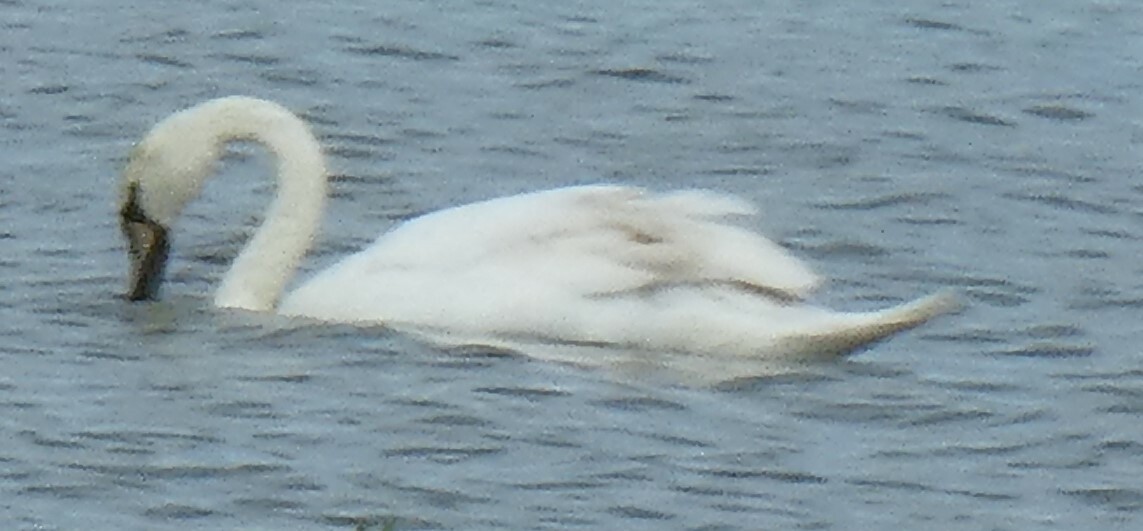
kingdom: Animalia
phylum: Chordata
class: Aves
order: Anseriformes
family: Anatidae
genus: Cygnus
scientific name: Cygnus olor
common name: Mute swan
